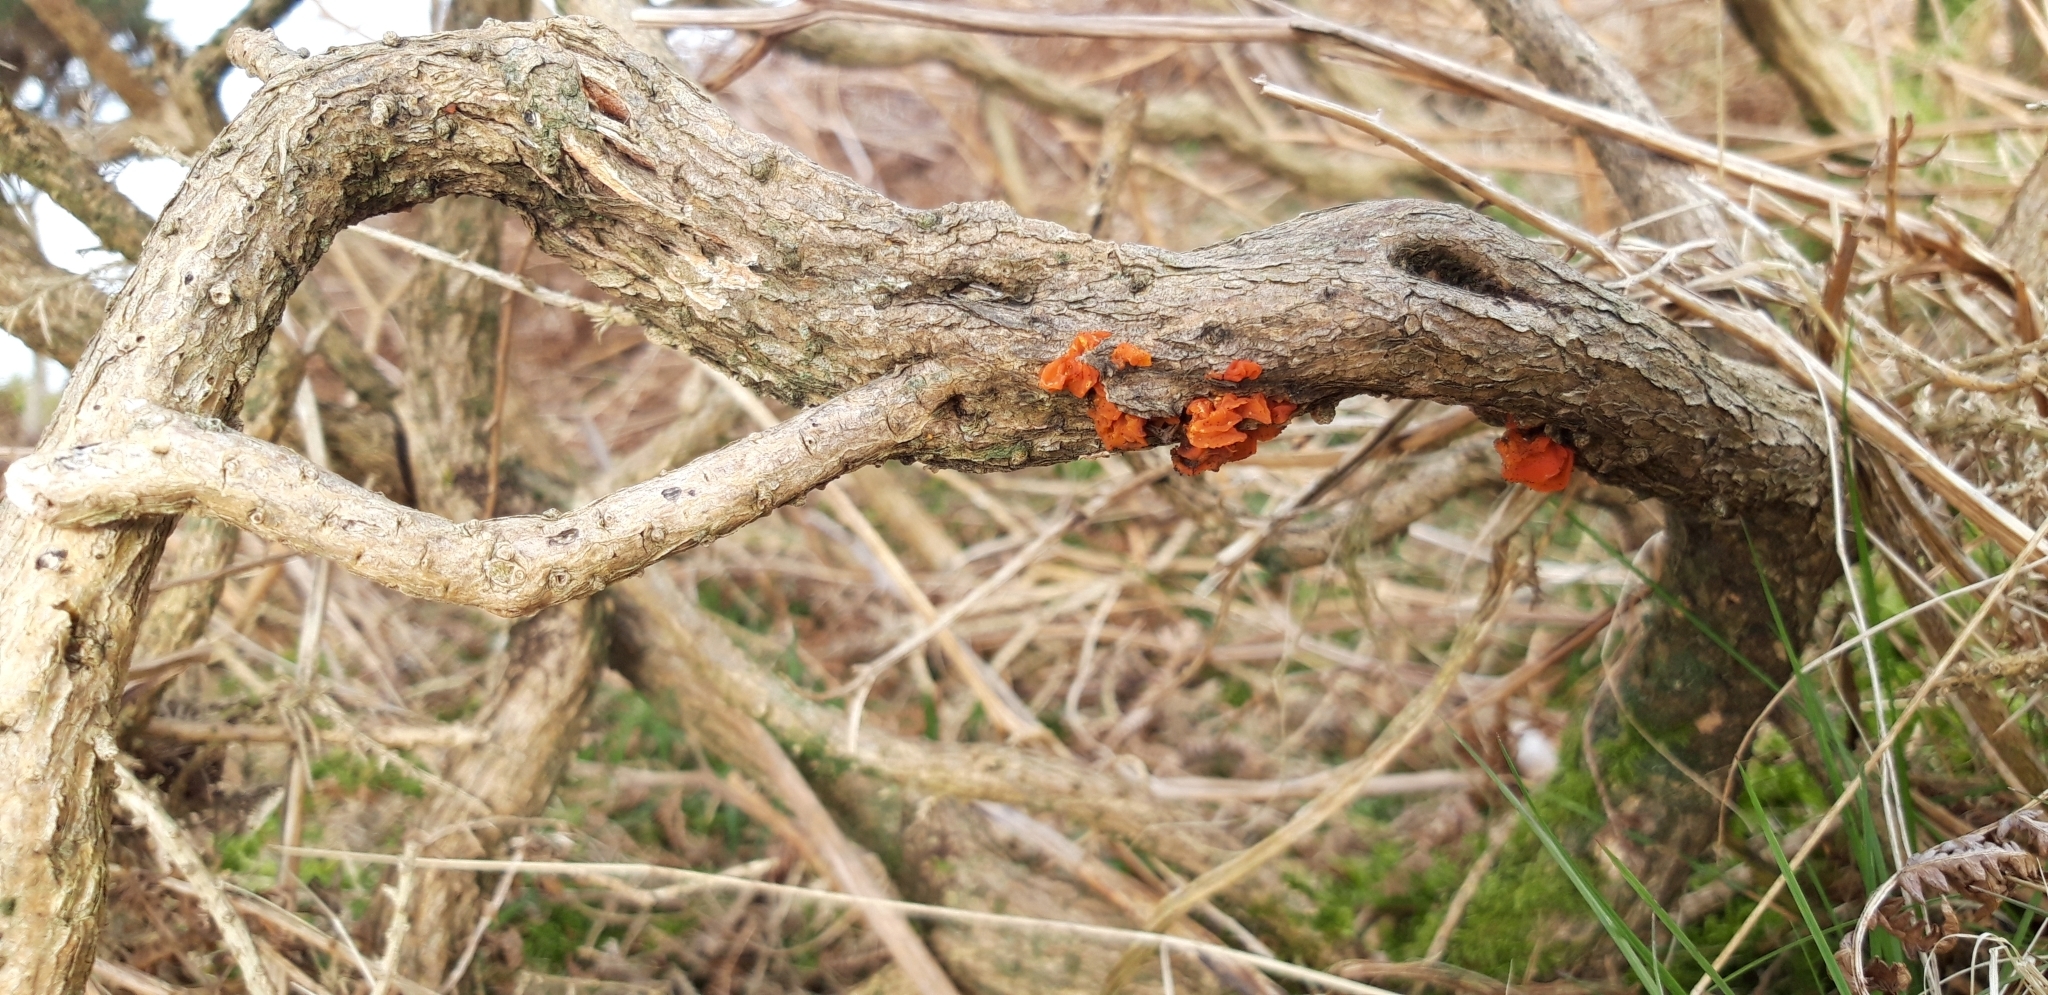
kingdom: Fungi
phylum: Basidiomycota
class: Tremellomycetes
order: Tremellales
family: Tremellaceae
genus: Tremella
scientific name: Tremella mesenterica
